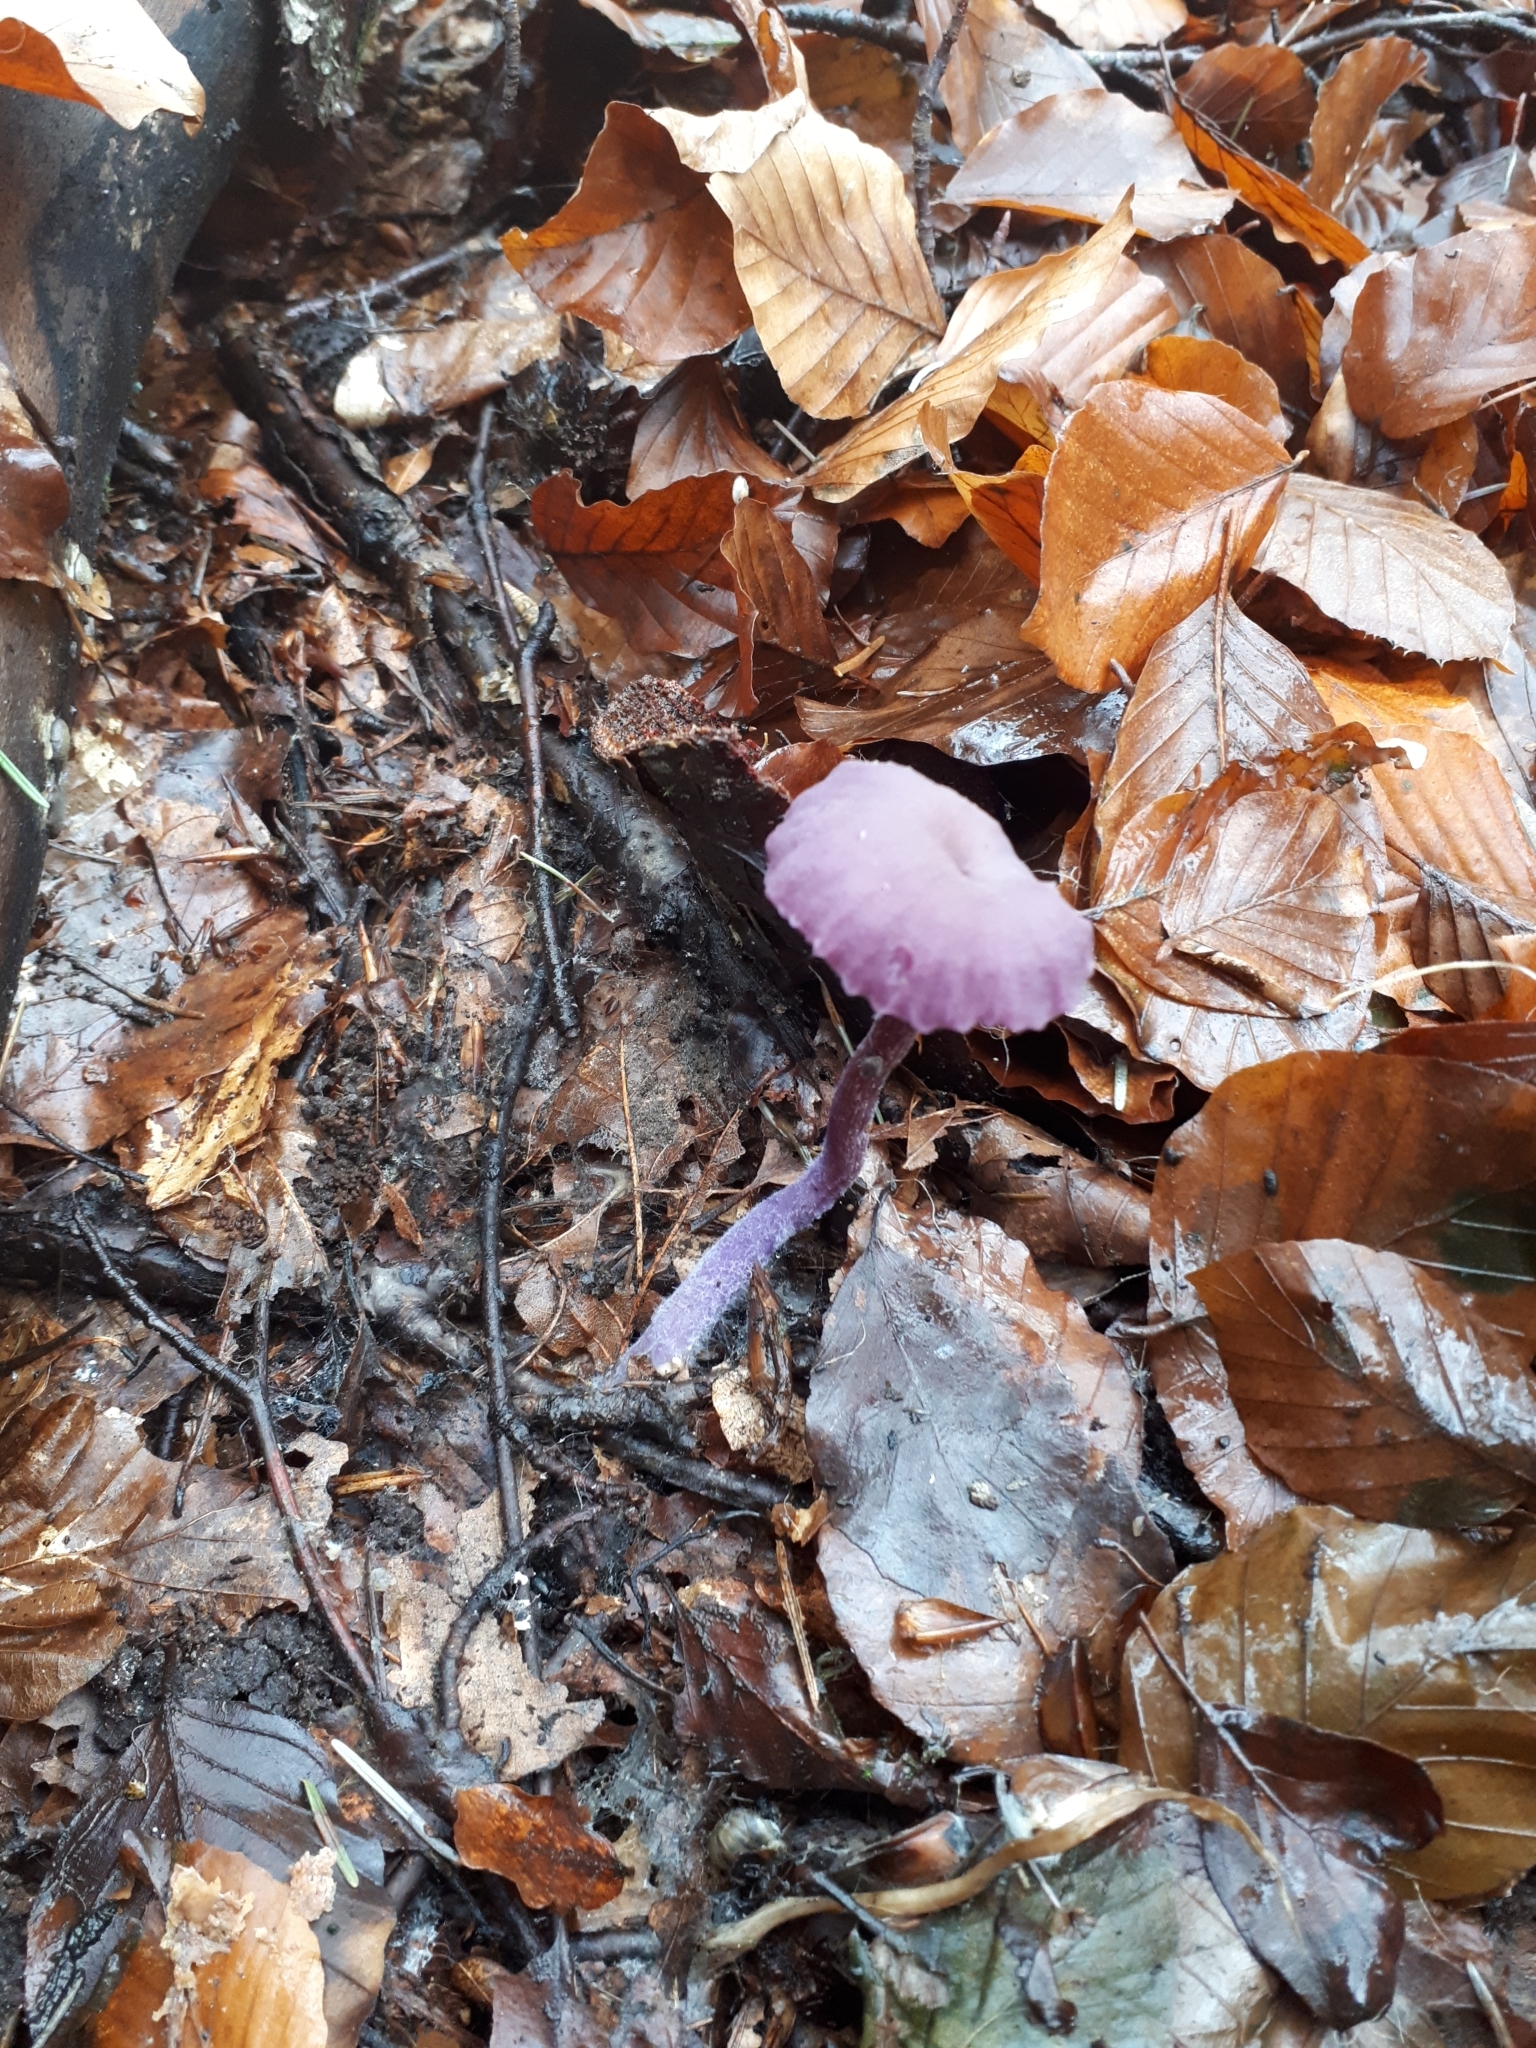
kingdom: Fungi
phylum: Basidiomycota
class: Agaricomycetes
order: Agaricales
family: Hydnangiaceae
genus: Laccaria
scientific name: Laccaria amethystina
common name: Amethyst deceiver
